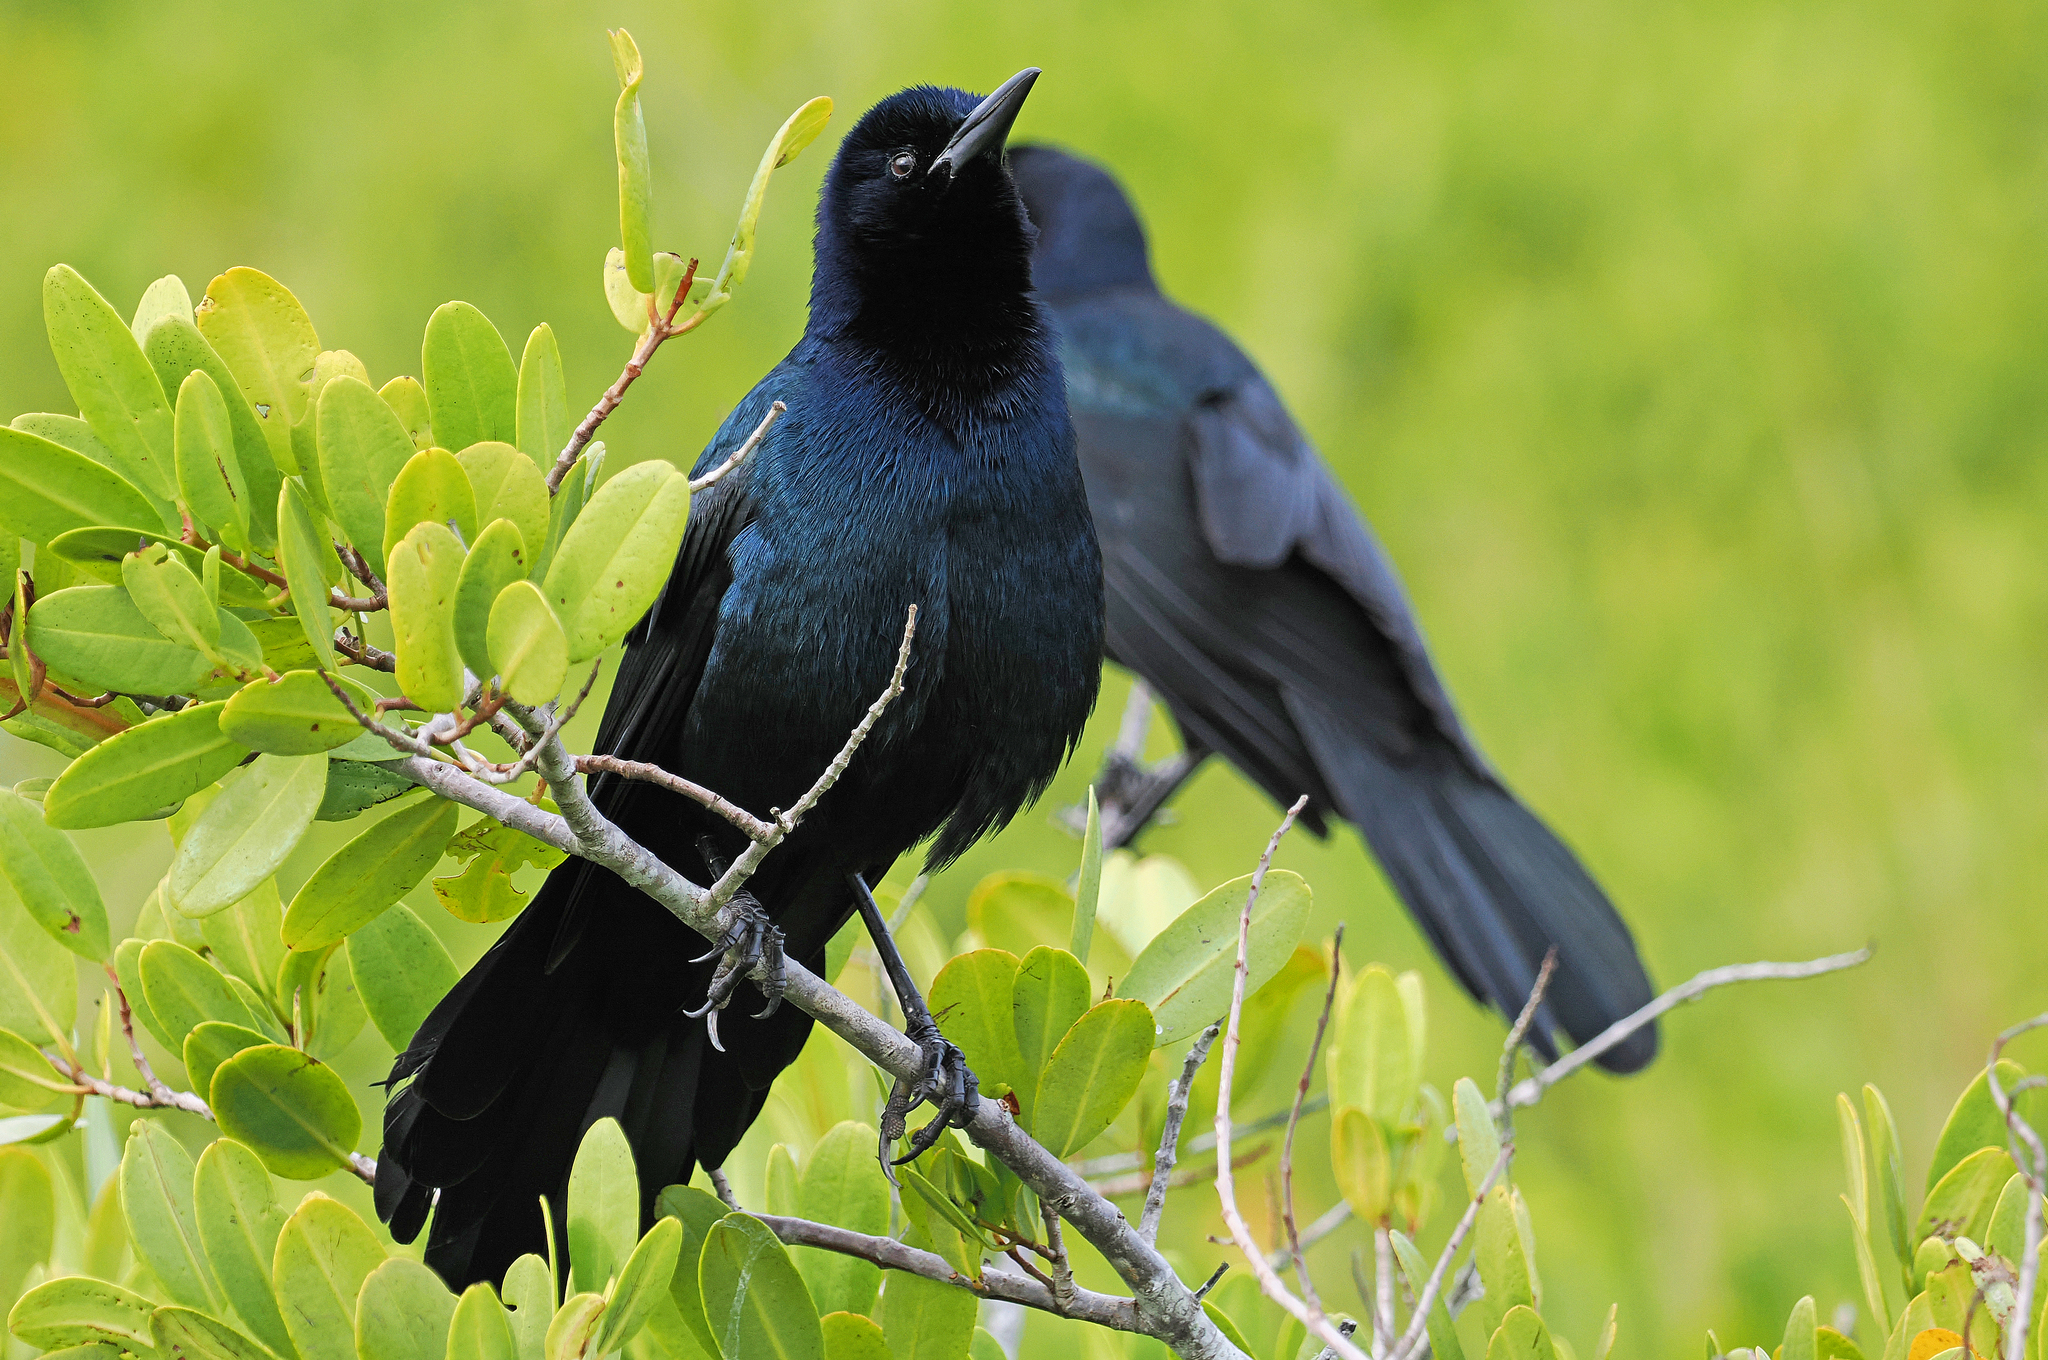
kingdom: Animalia
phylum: Chordata
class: Aves
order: Passeriformes
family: Icteridae
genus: Quiscalus
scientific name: Quiscalus major
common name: Boat-tailed grackle
